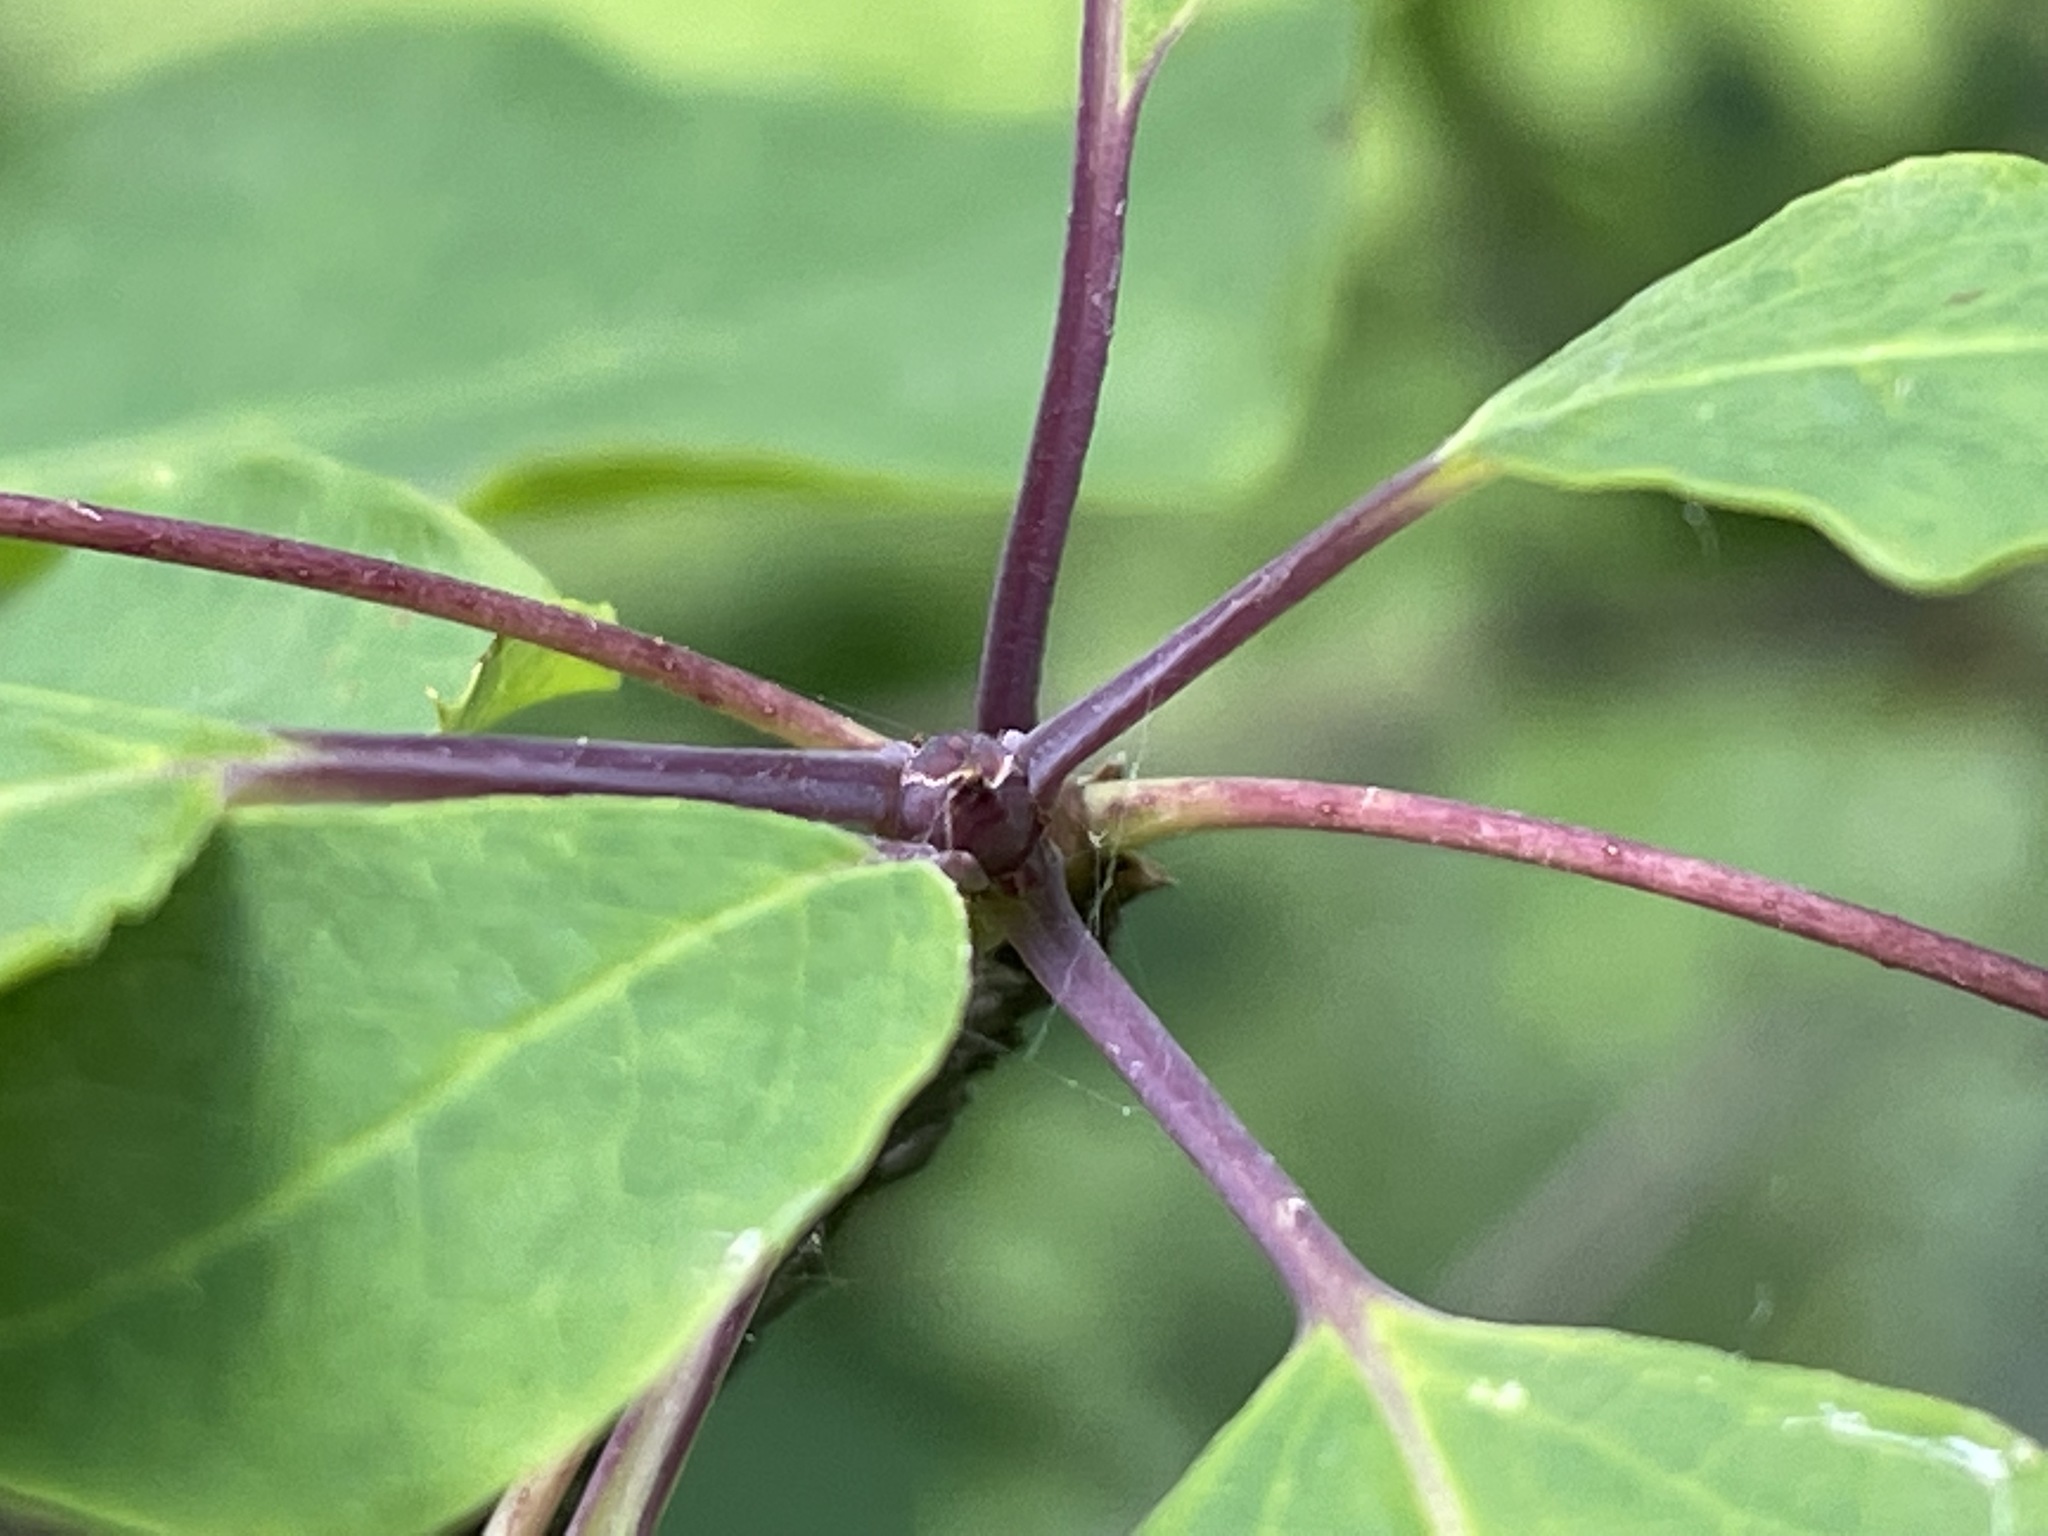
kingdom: Plantae
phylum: Tracheophyta
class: Magnoliopsida
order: Aquifoliales
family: Aquifoliaceae
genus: Ilex
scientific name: Ilex mucronata
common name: Catberry
